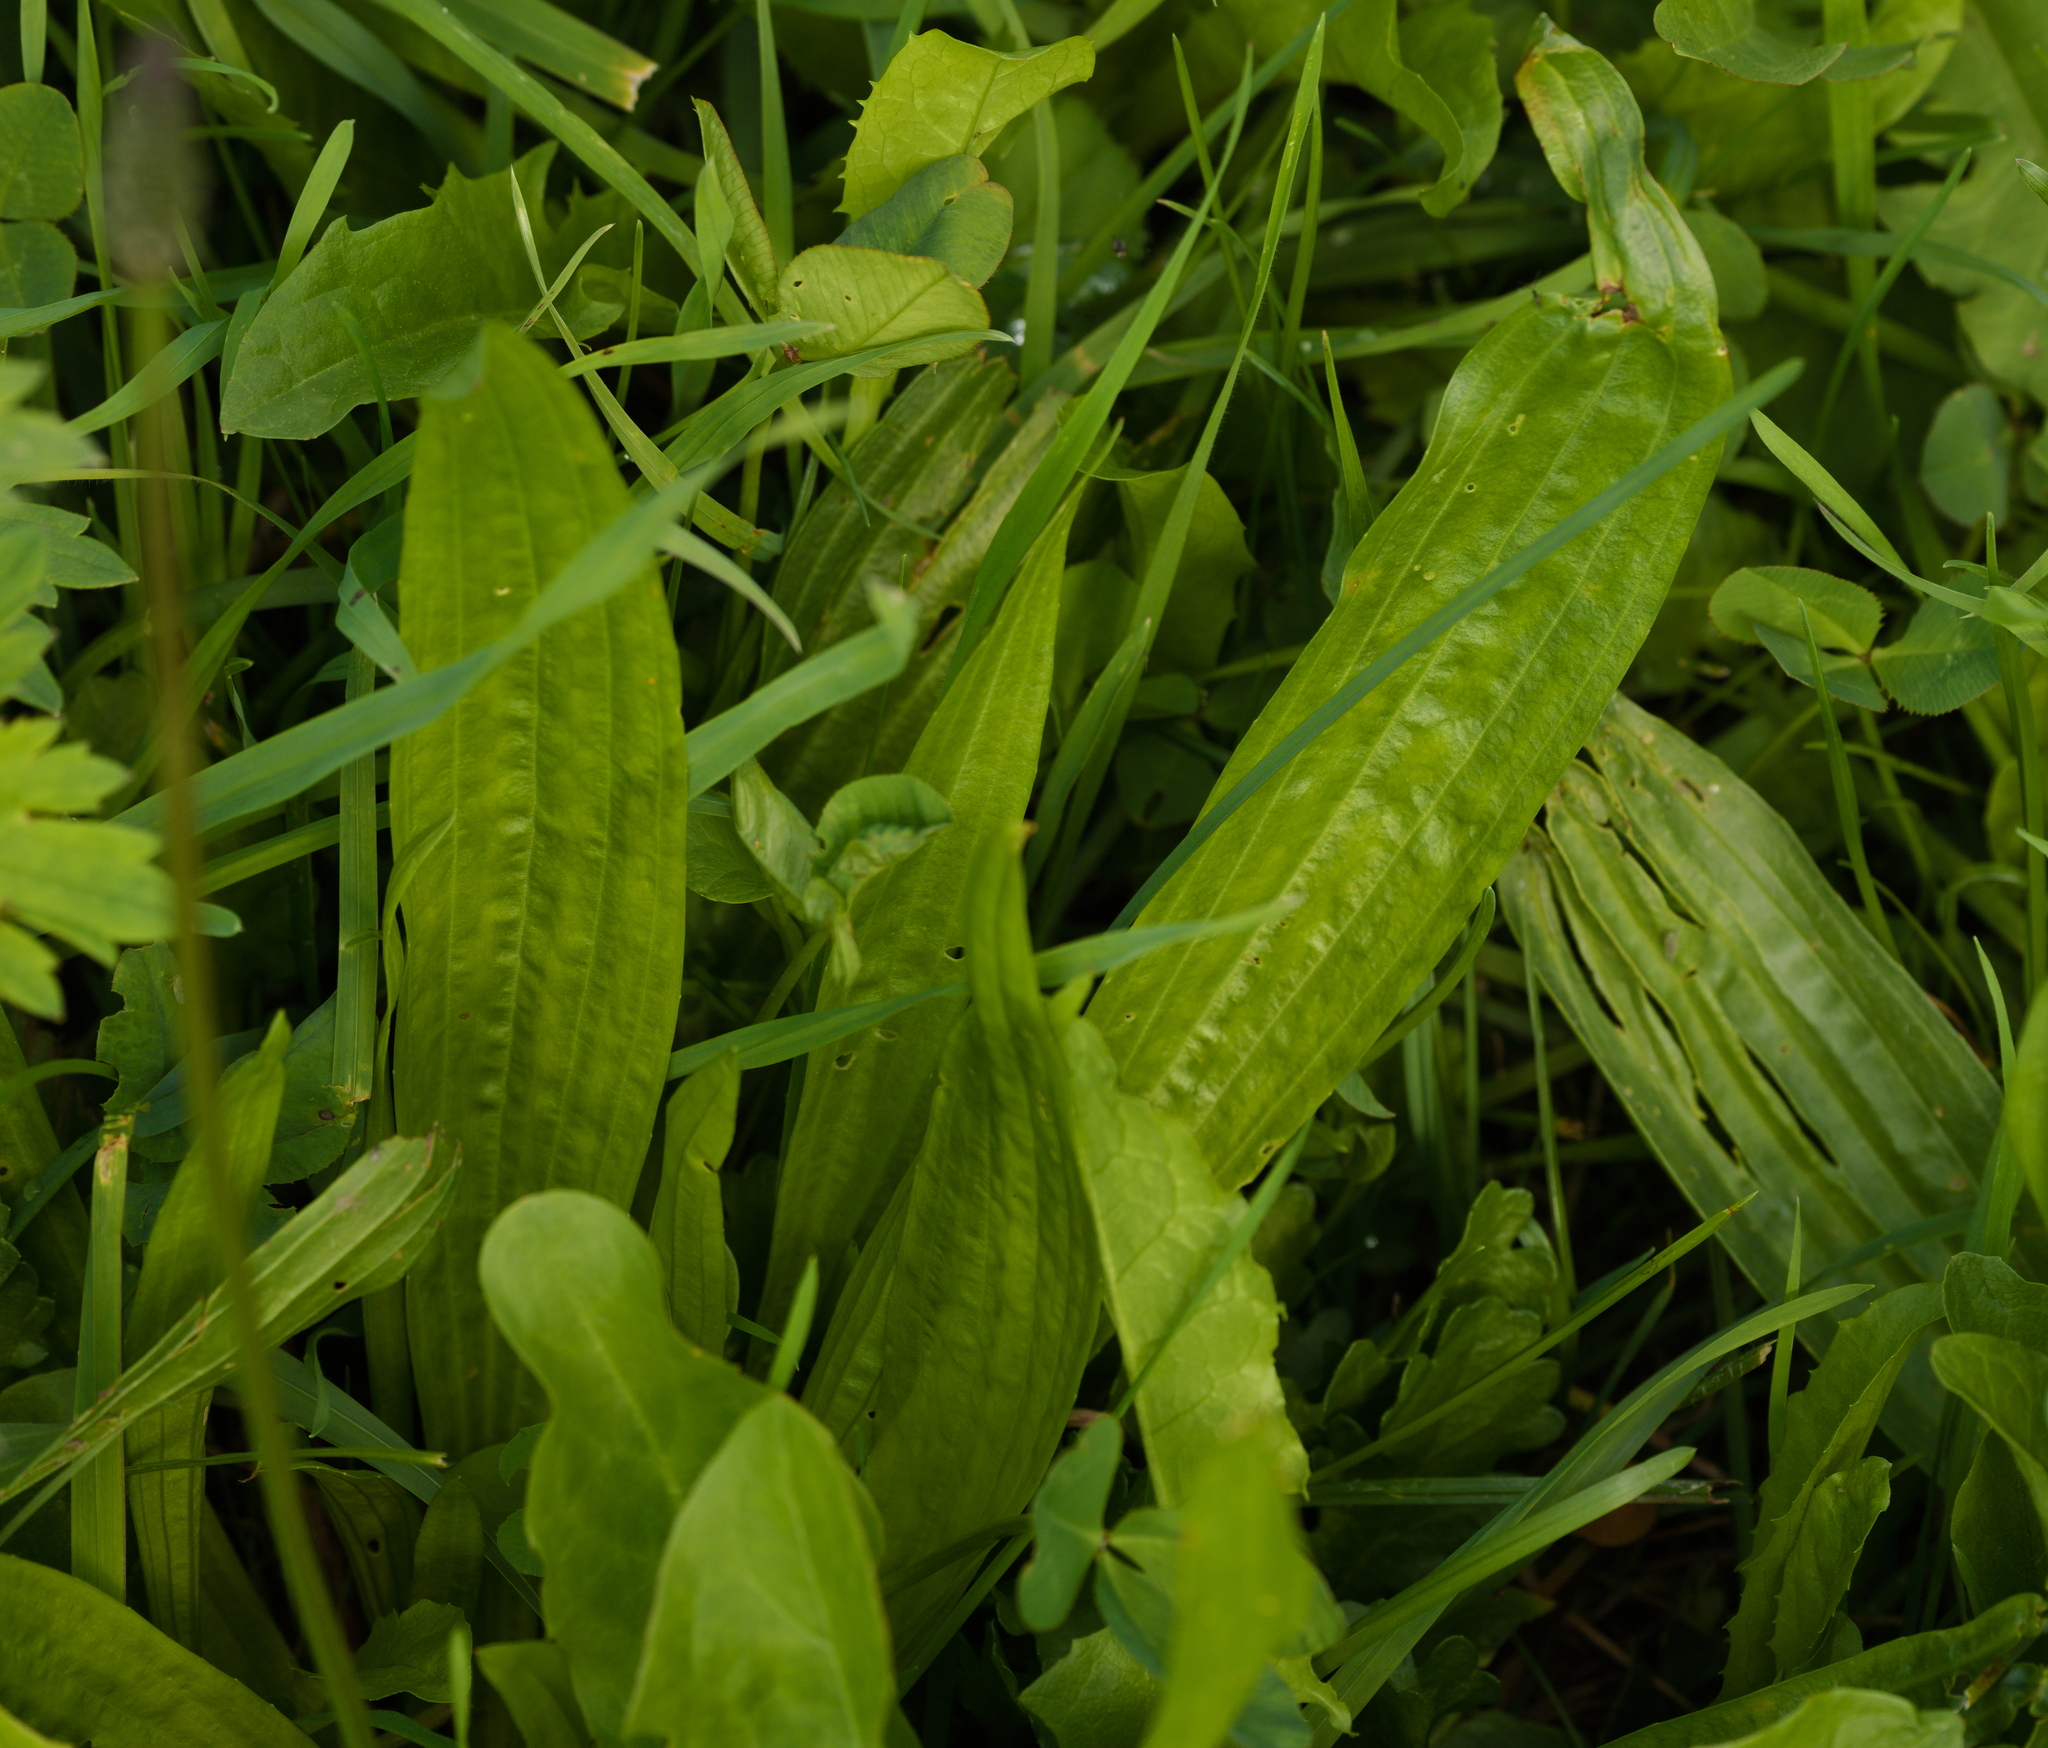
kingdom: Plantae
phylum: Tracheophyta
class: Magnoliopsida
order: Lamiales
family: Plantaginaceae
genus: Plantago
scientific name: Plantago lanceolata
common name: Ribwort plantain
